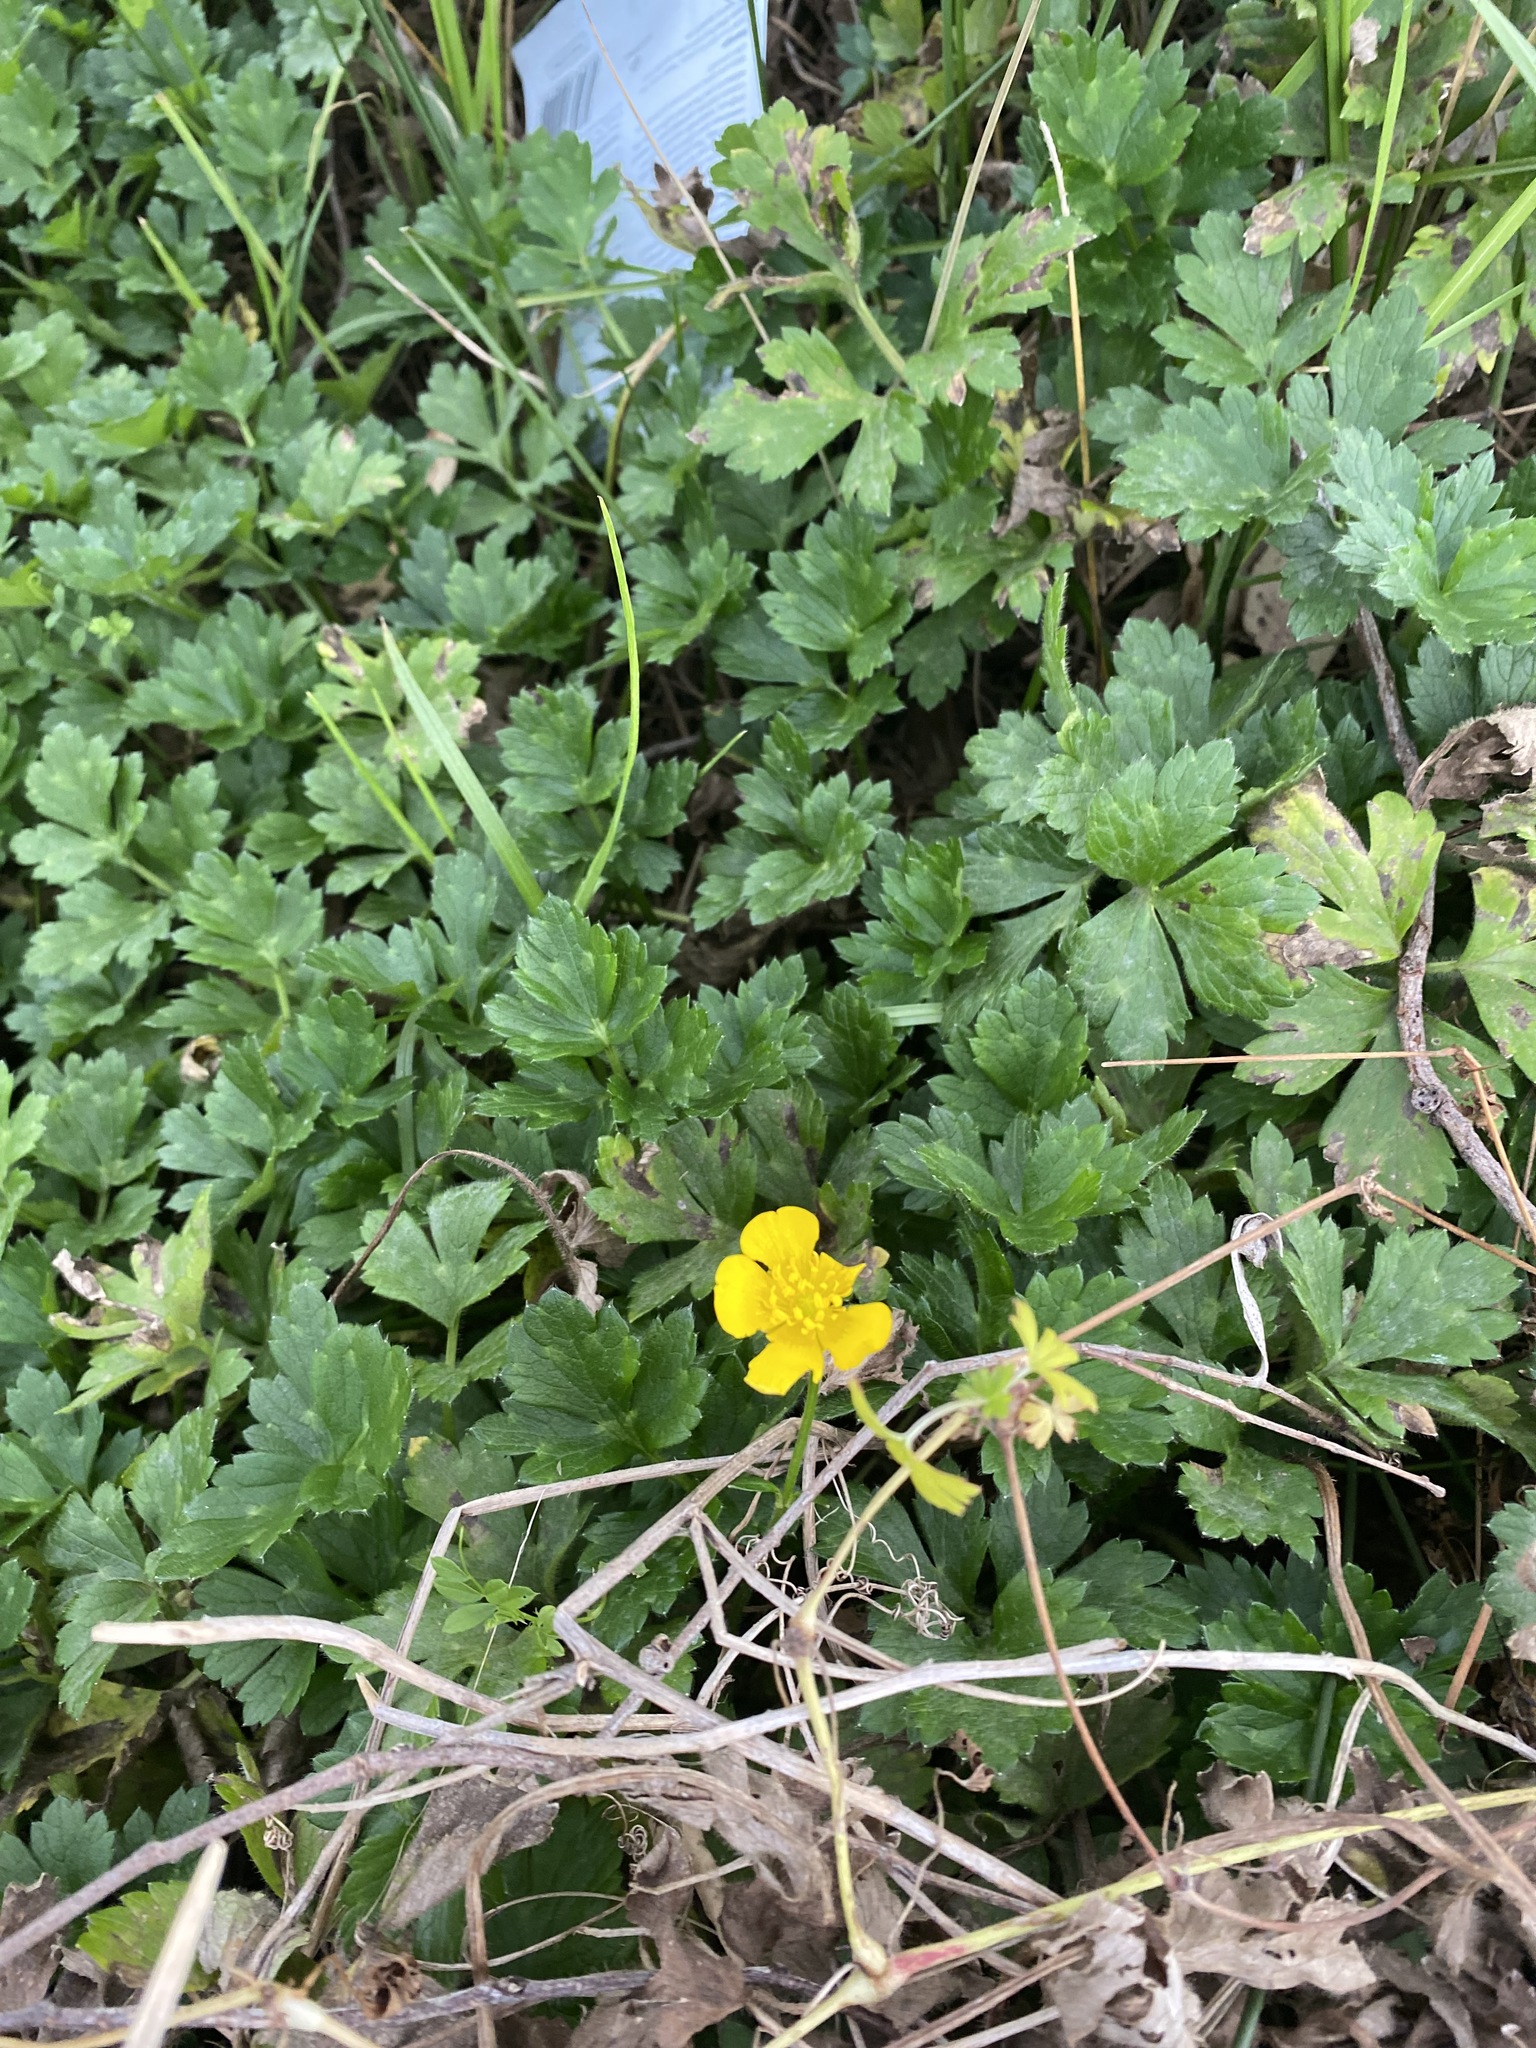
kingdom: Plantae
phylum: Tracheophyta
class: Magnoliopsida
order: Ranunculales
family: Ranunculaceae
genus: Ranunculus
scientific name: Ranunculus repens
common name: Creeping buttercup
